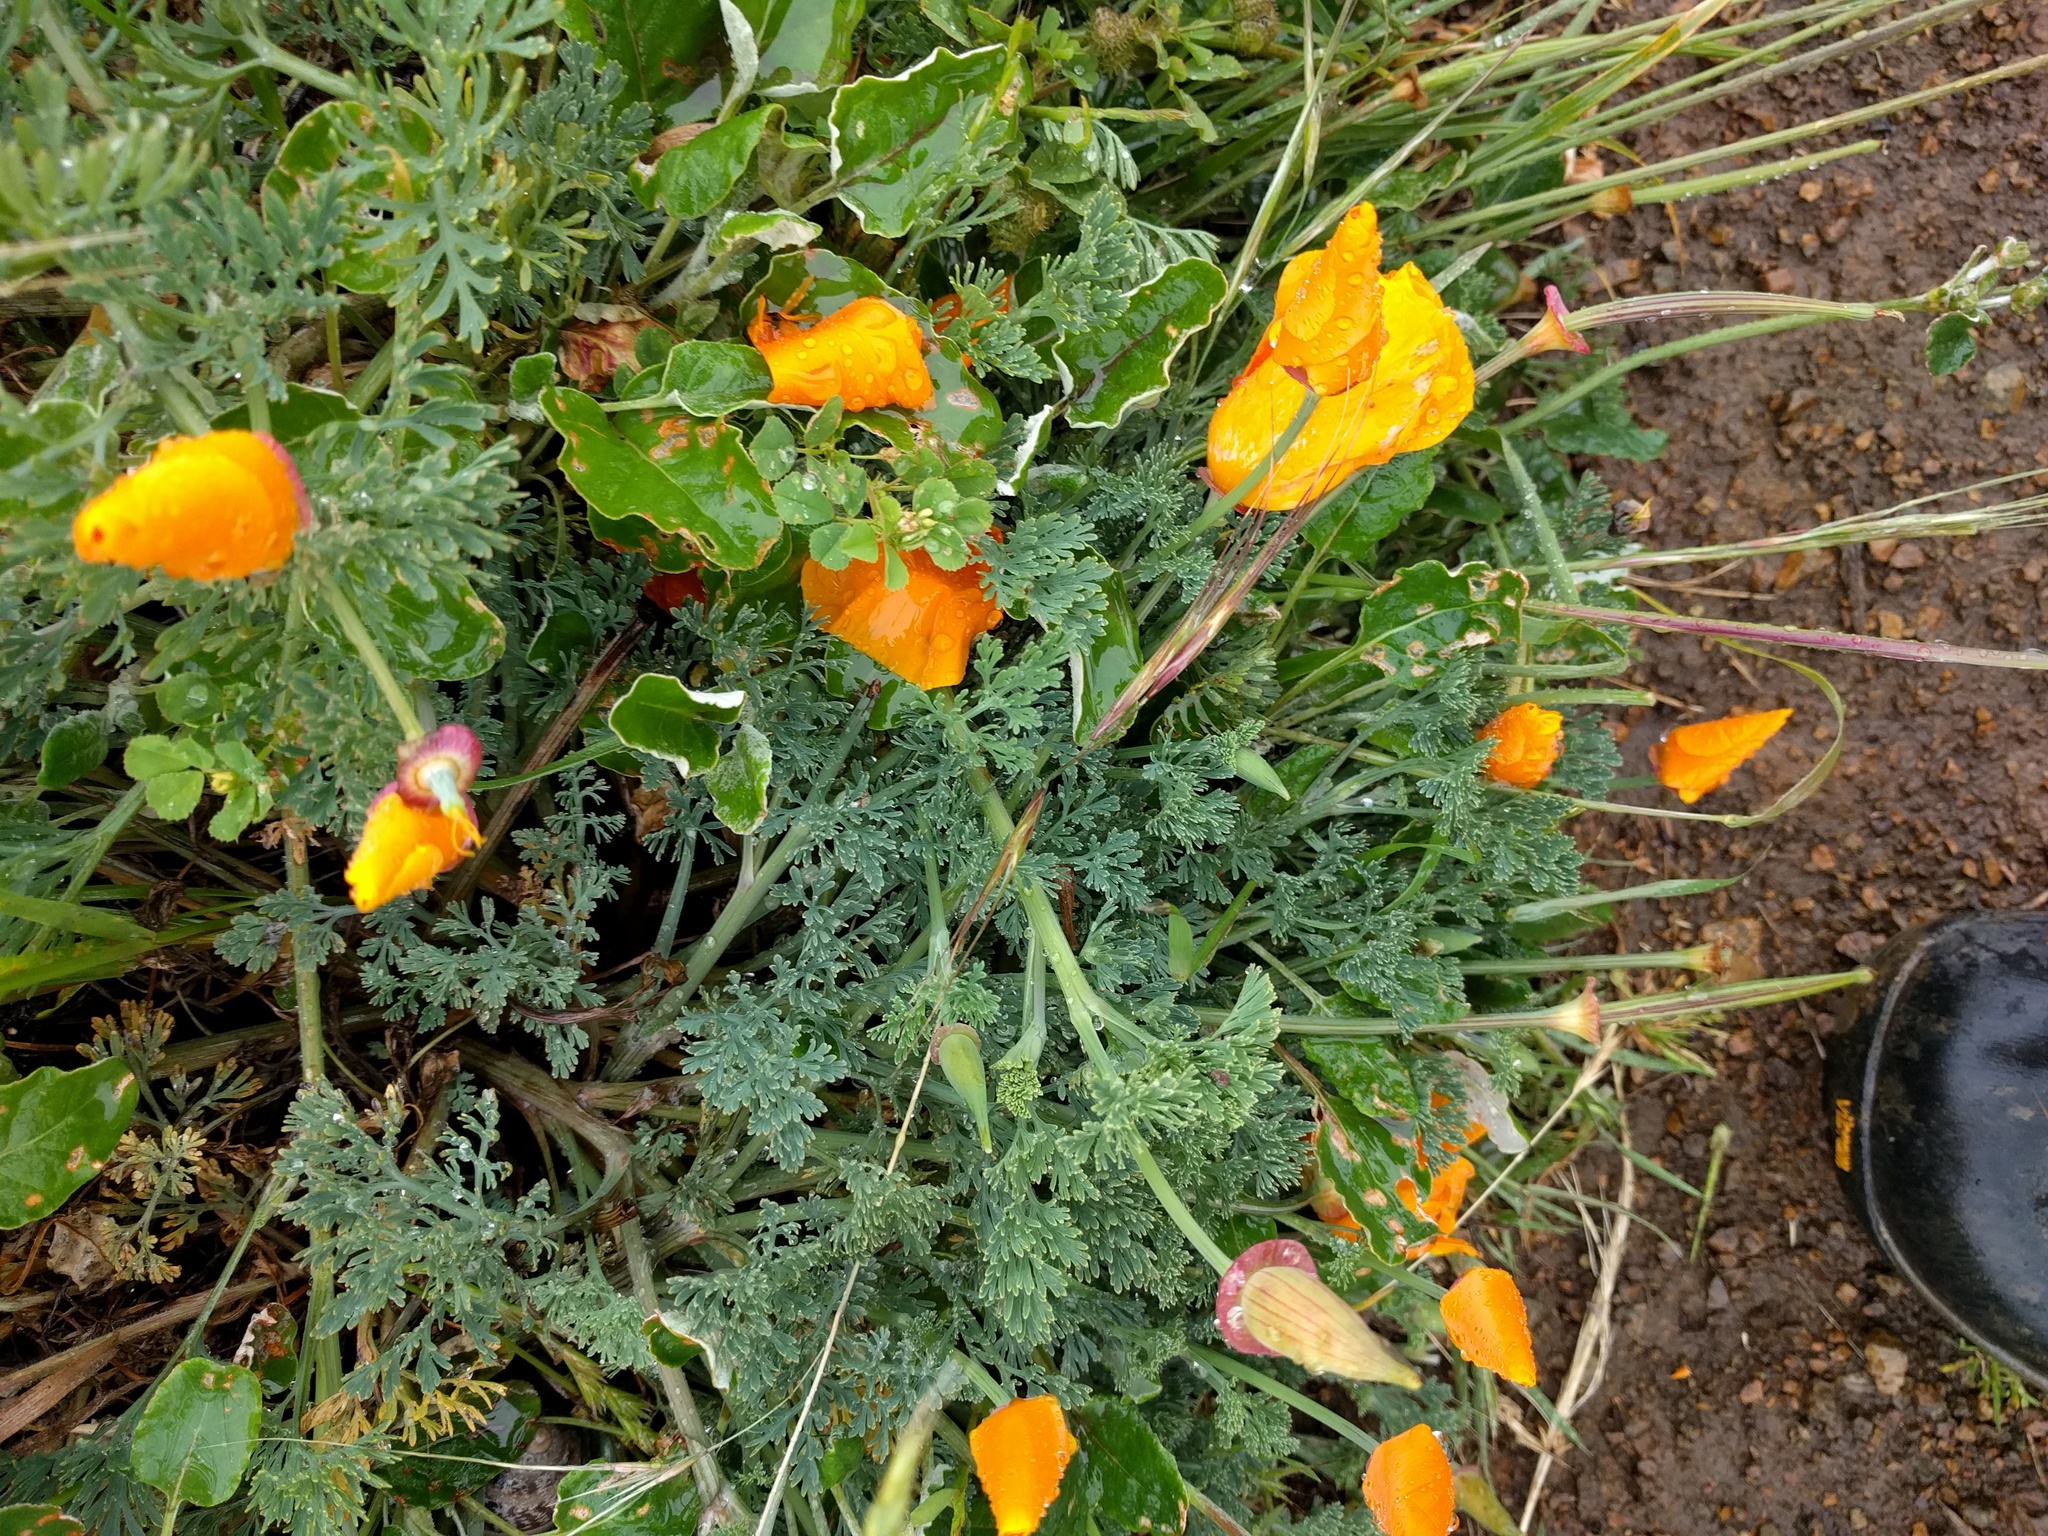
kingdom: Plantae
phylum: Tracheophyta
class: Magnoliopsida
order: Ranunculales
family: Papaveraceae
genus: Eschscholzia
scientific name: Eschscholzia californica
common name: California poppy
